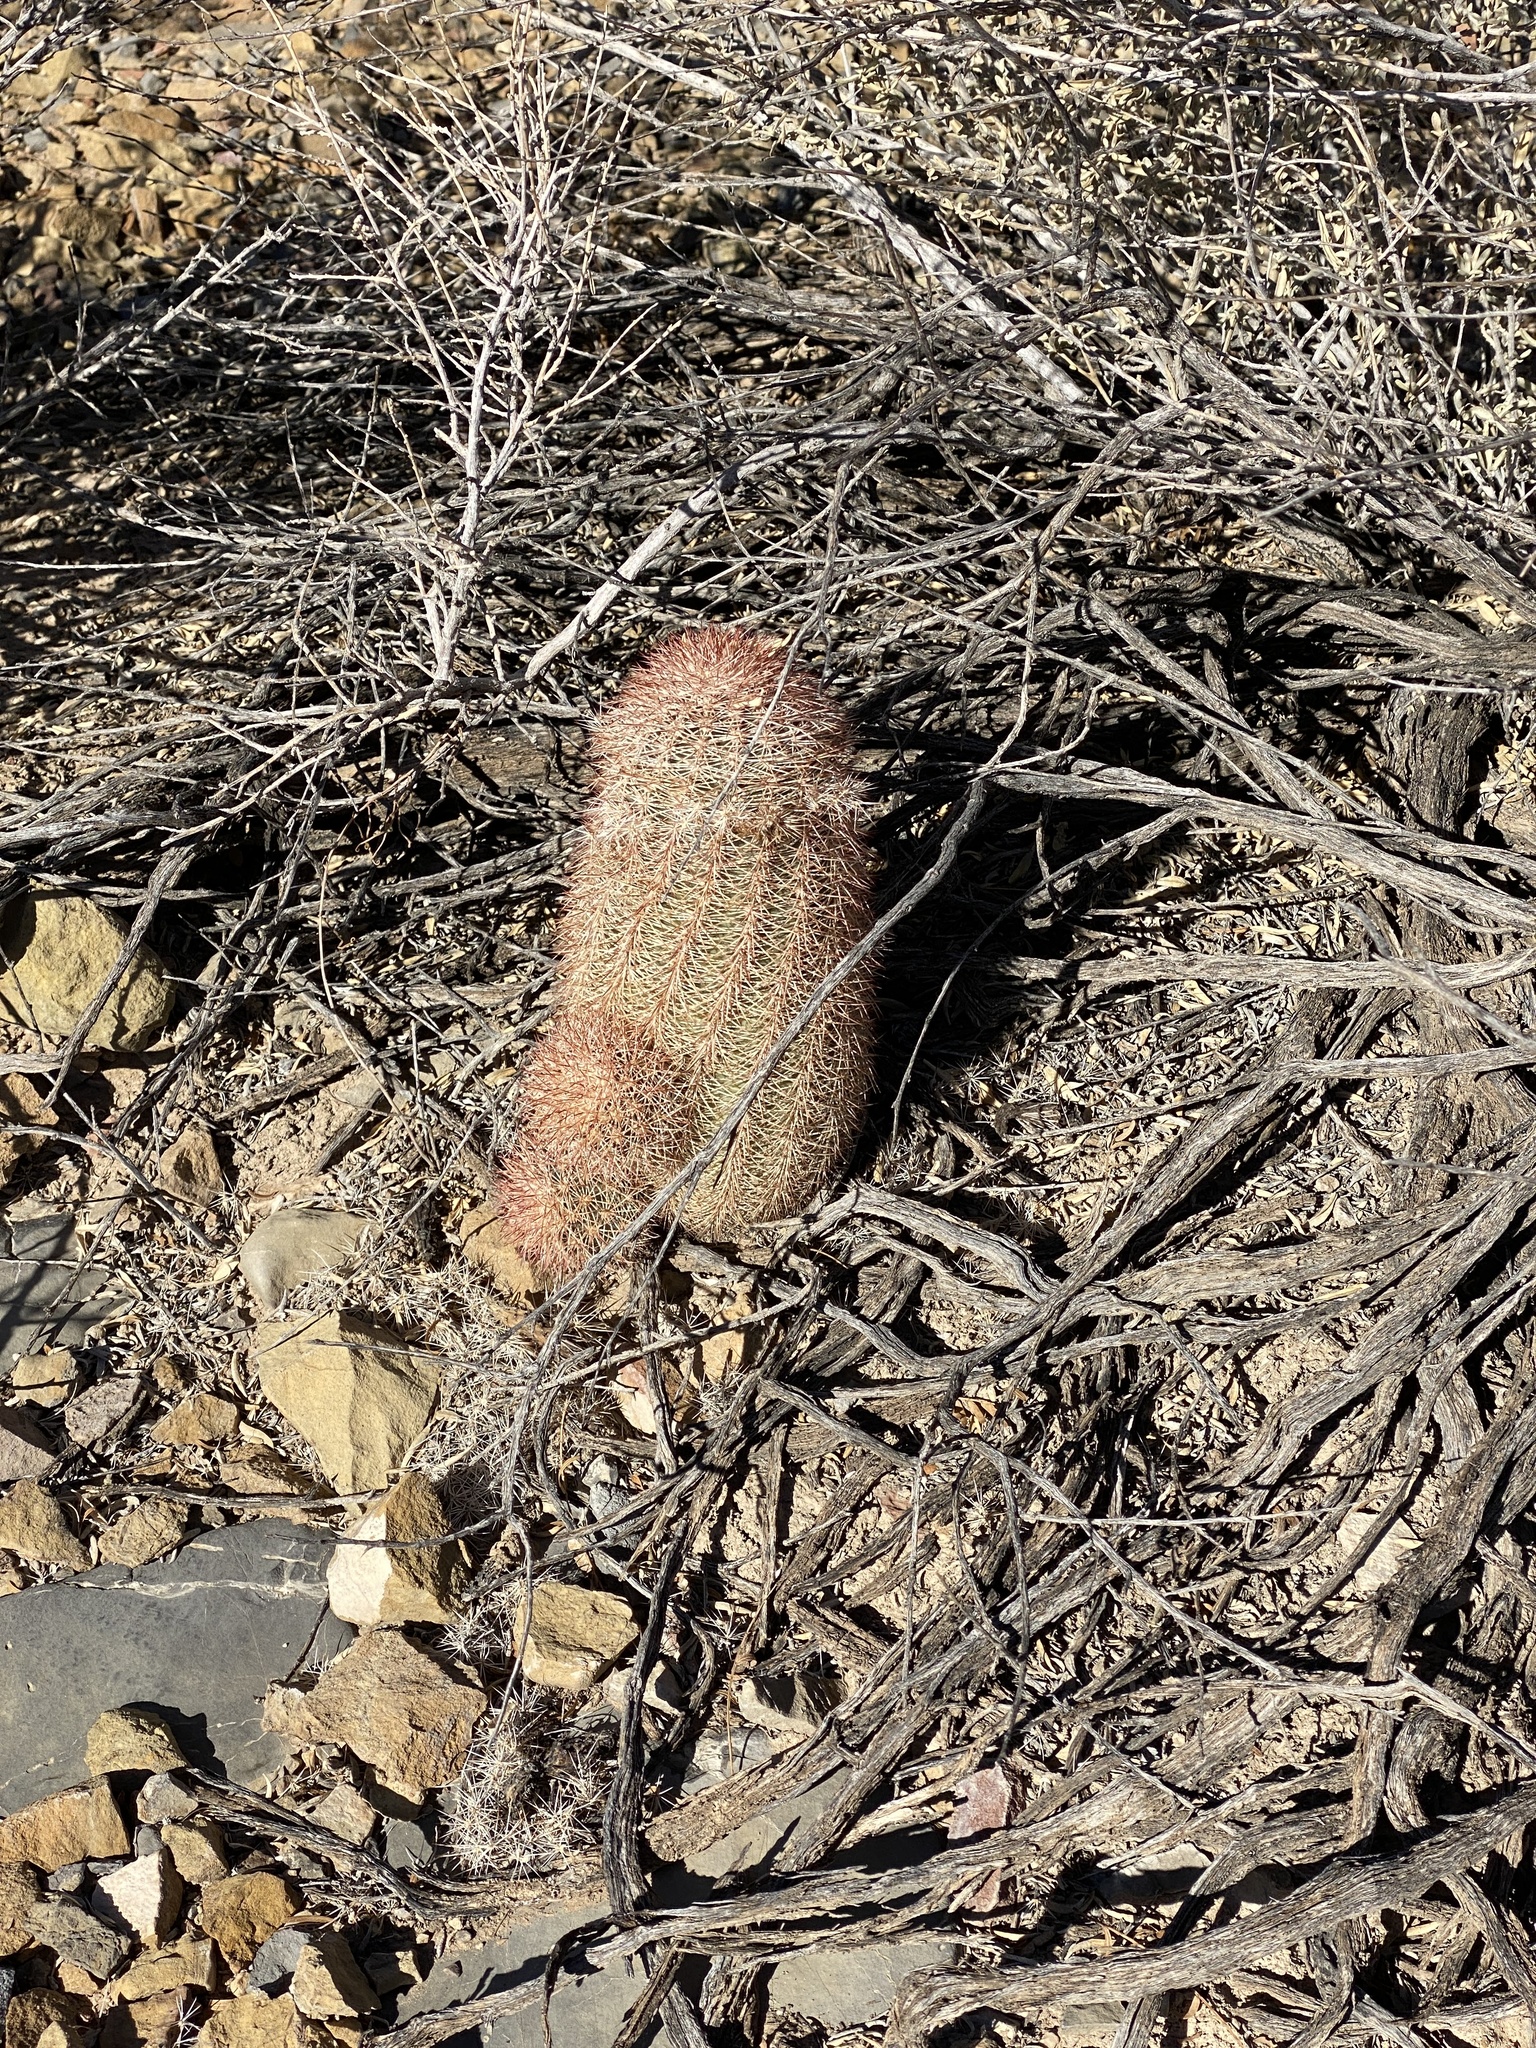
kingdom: Plantae
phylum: Tracheophyta
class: Magnoliopsida
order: Caryophyllales
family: Cactaceae
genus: Echinocereus
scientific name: Echinocereus dasyacanthus
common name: Spiny hedgehog cactus
